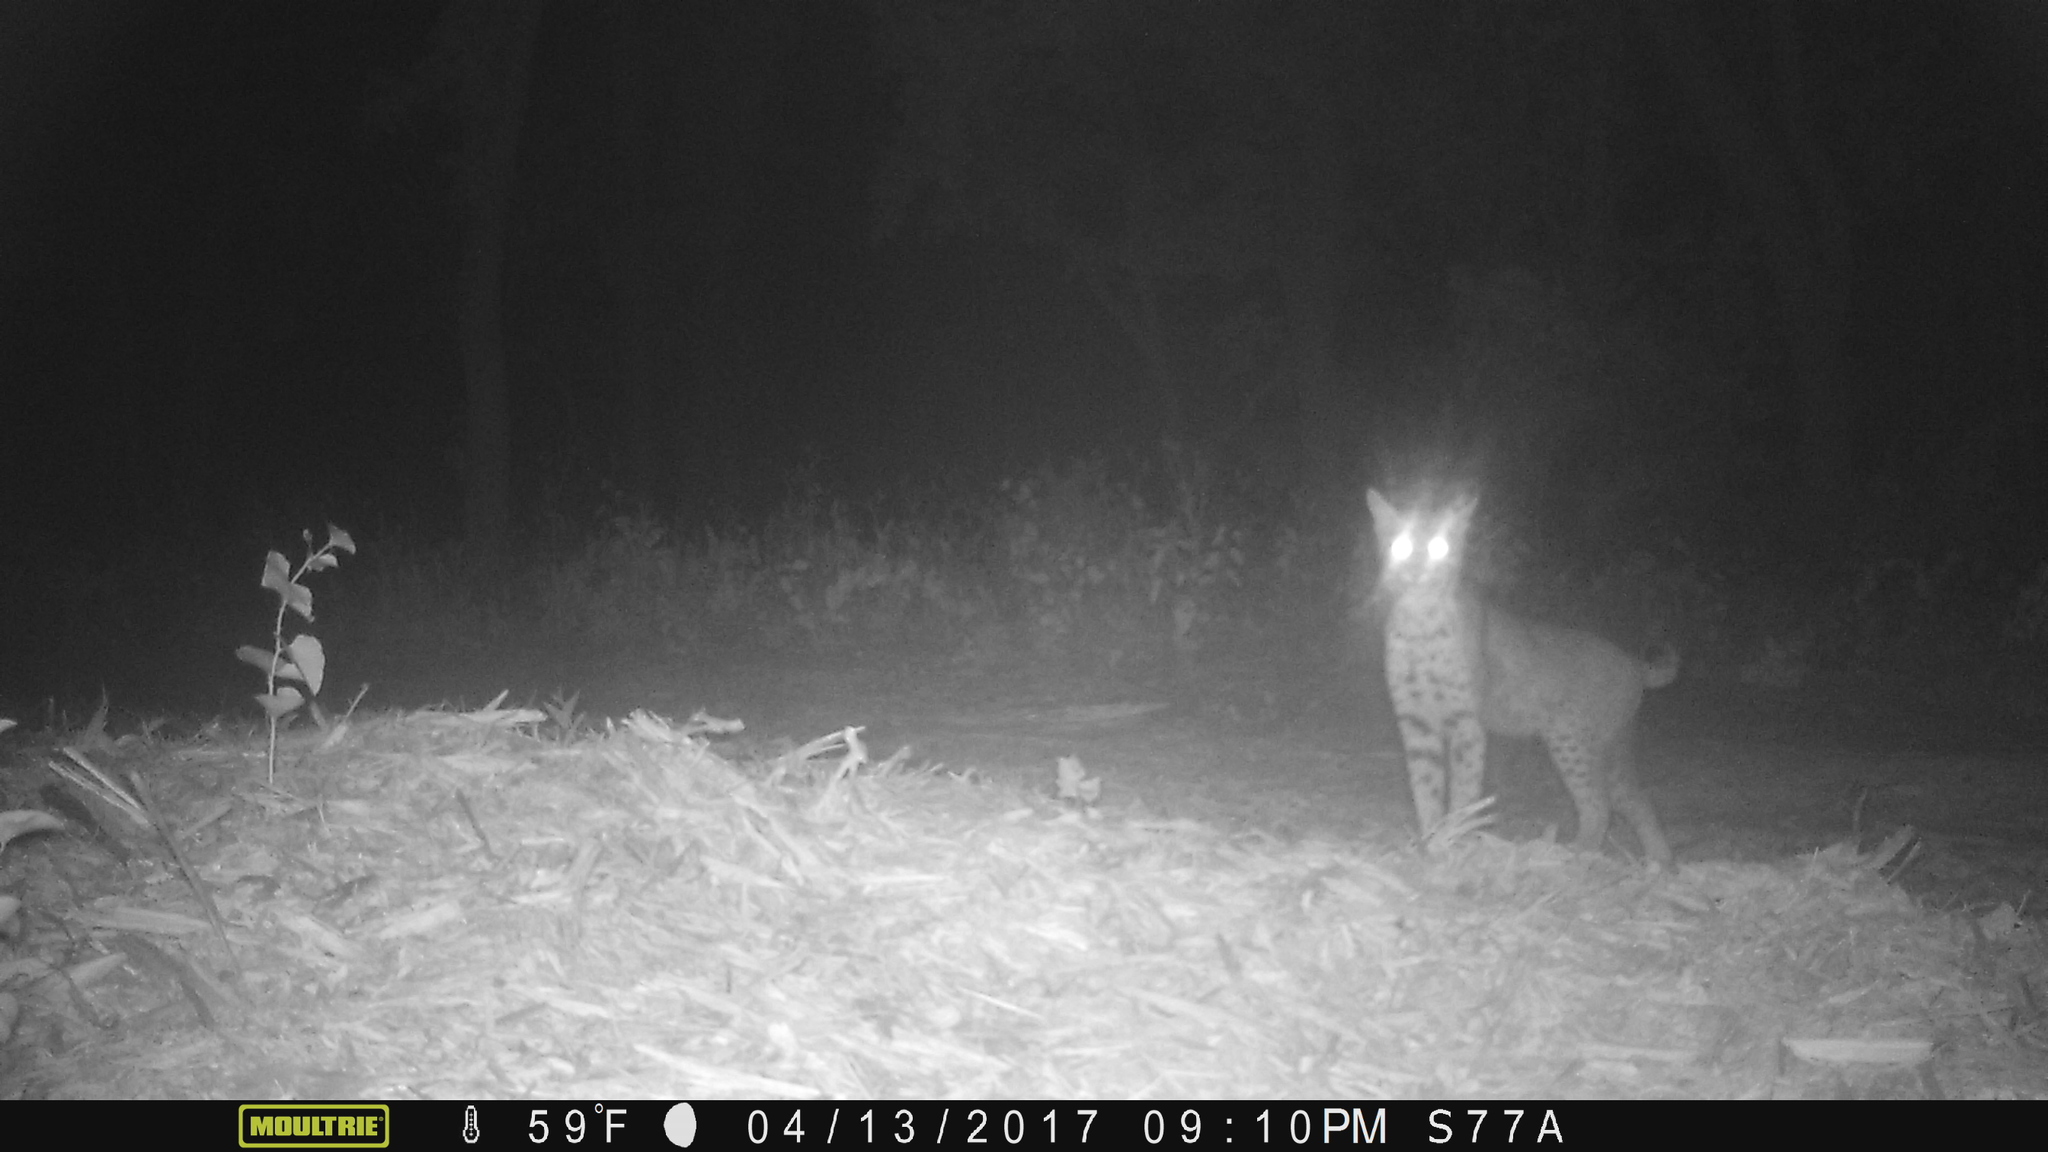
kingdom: Animalia
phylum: Chordata
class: Mammalia
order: Carnivora
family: Felidae
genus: Lynx
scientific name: Lynx rufus
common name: Bobcat
